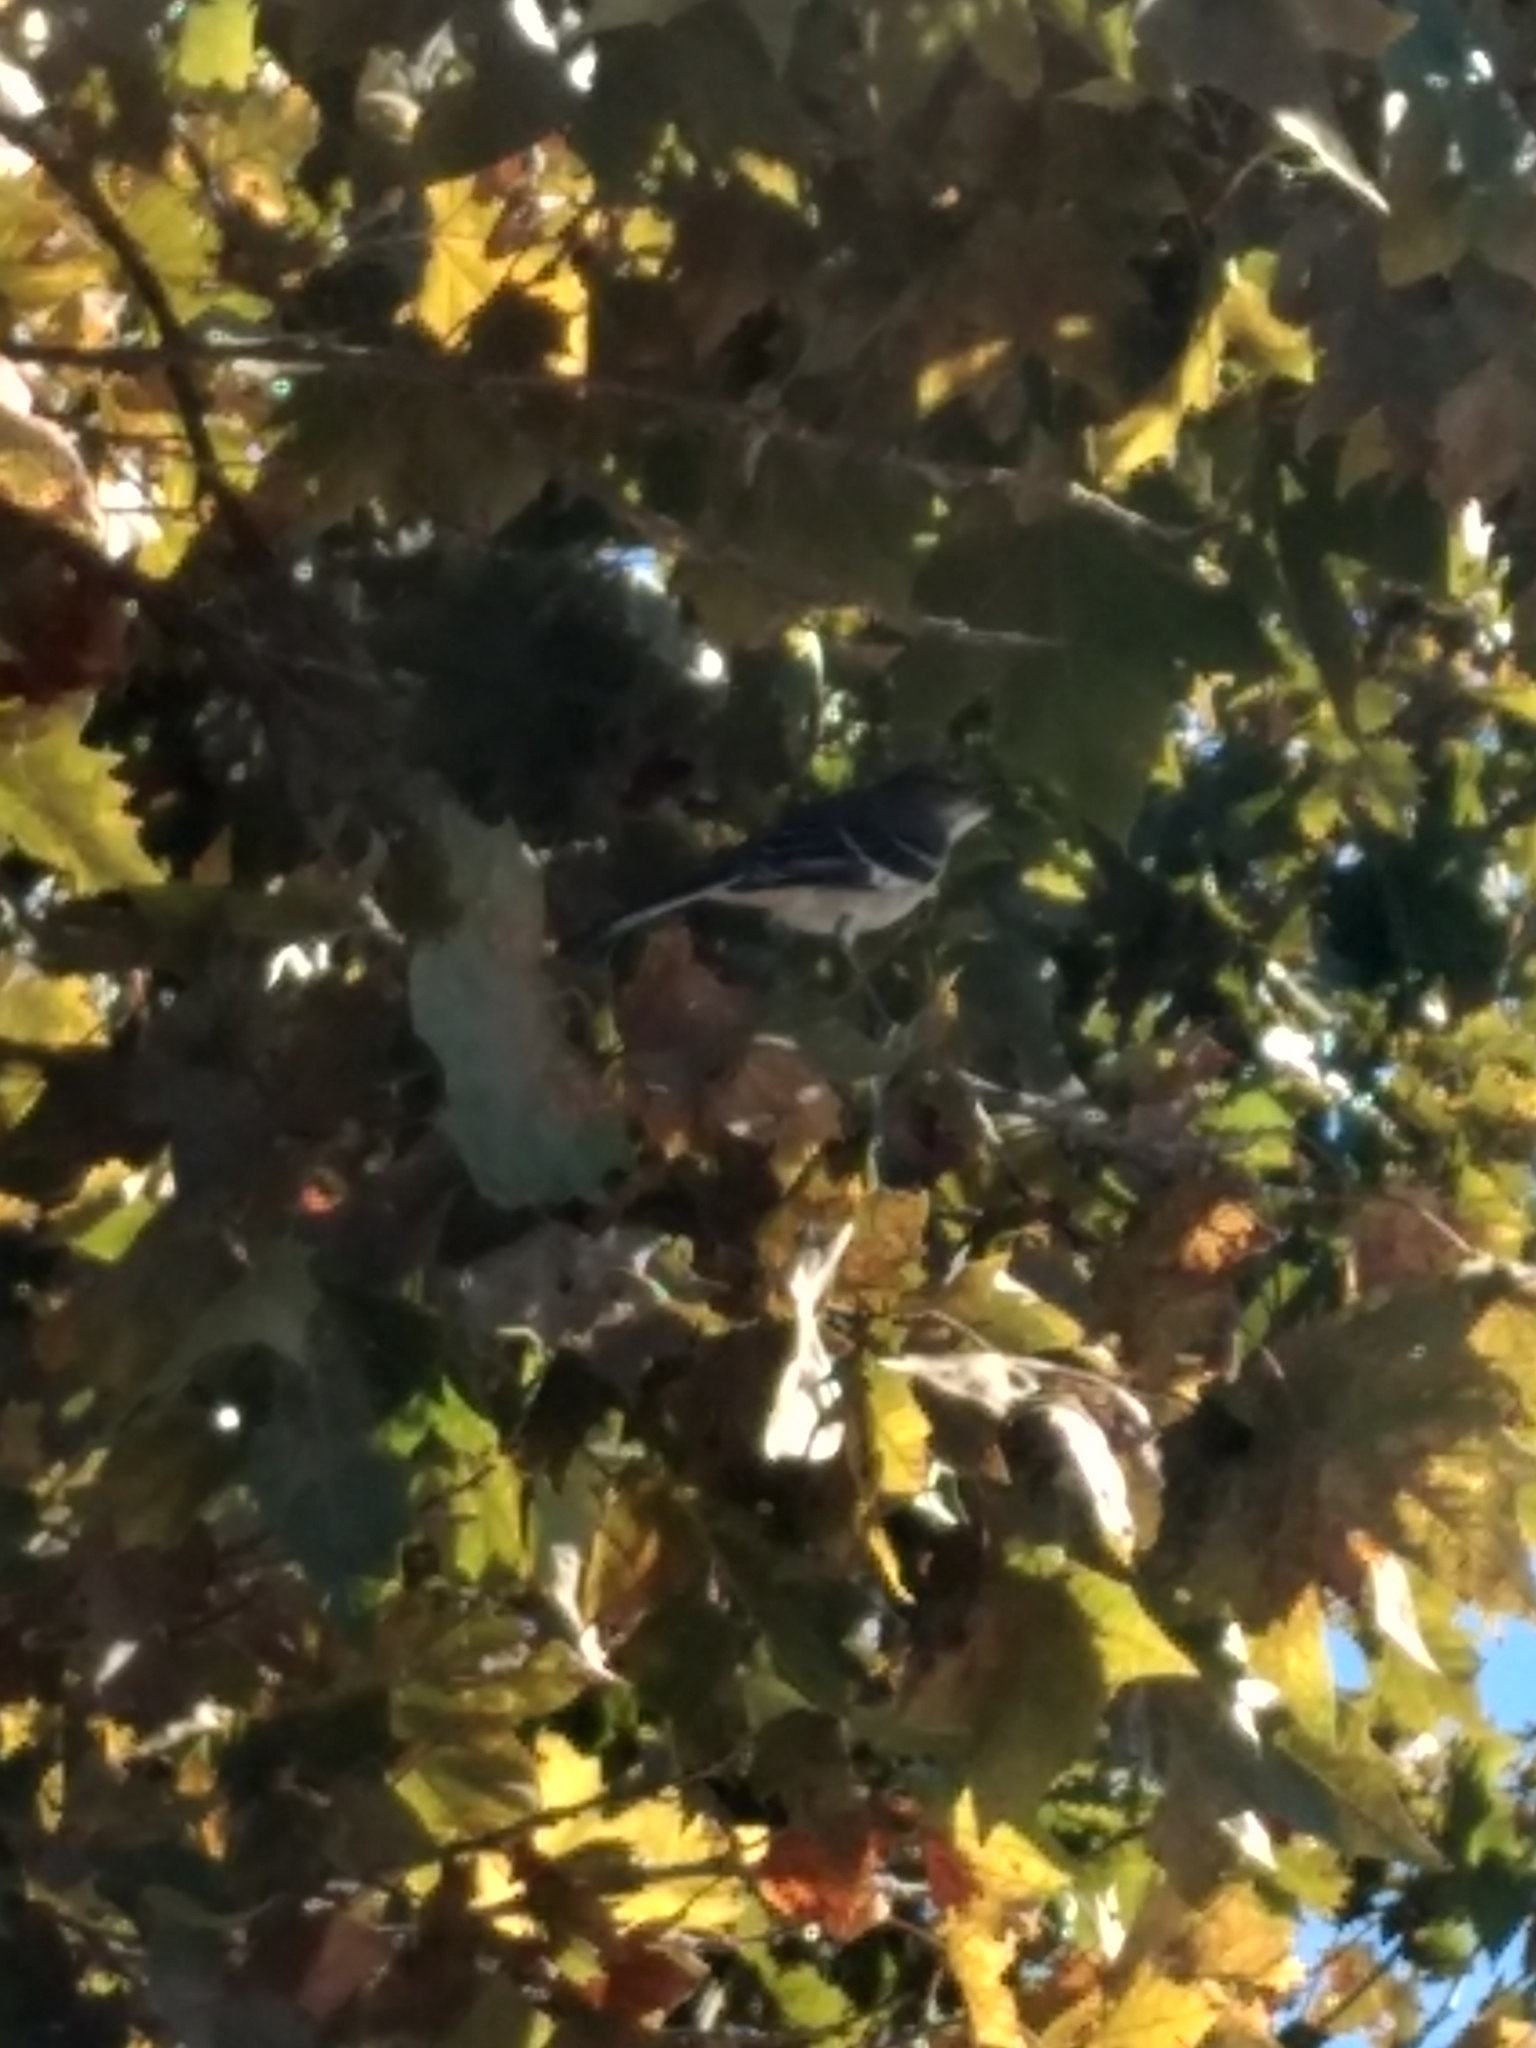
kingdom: Animalia
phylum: Chordata
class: Aves
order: Passeriformes
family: Mimidae
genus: Mimus
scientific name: Mimus polyglottos
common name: Northern mockingbird
